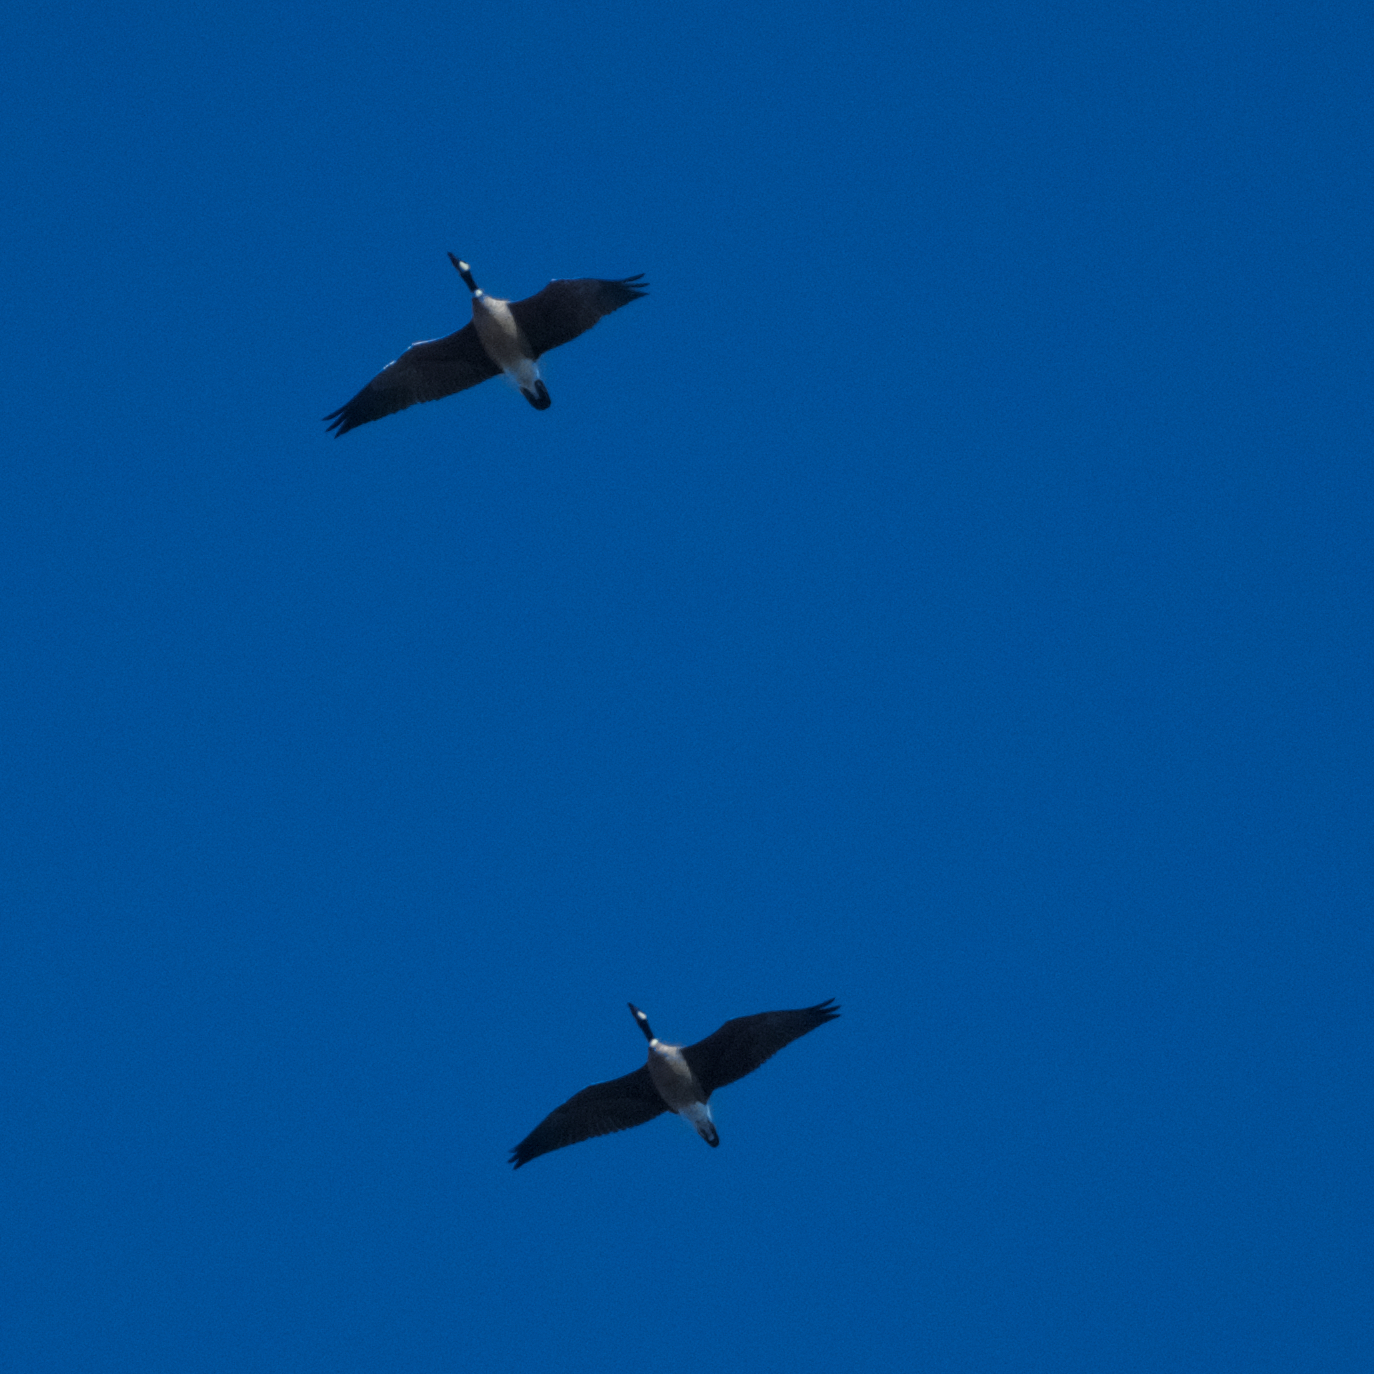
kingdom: Animalia
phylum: Chordata
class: Aves
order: Anseriformes
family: Anatidae
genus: Branta
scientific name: Branta canadensis
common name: Canada goose
